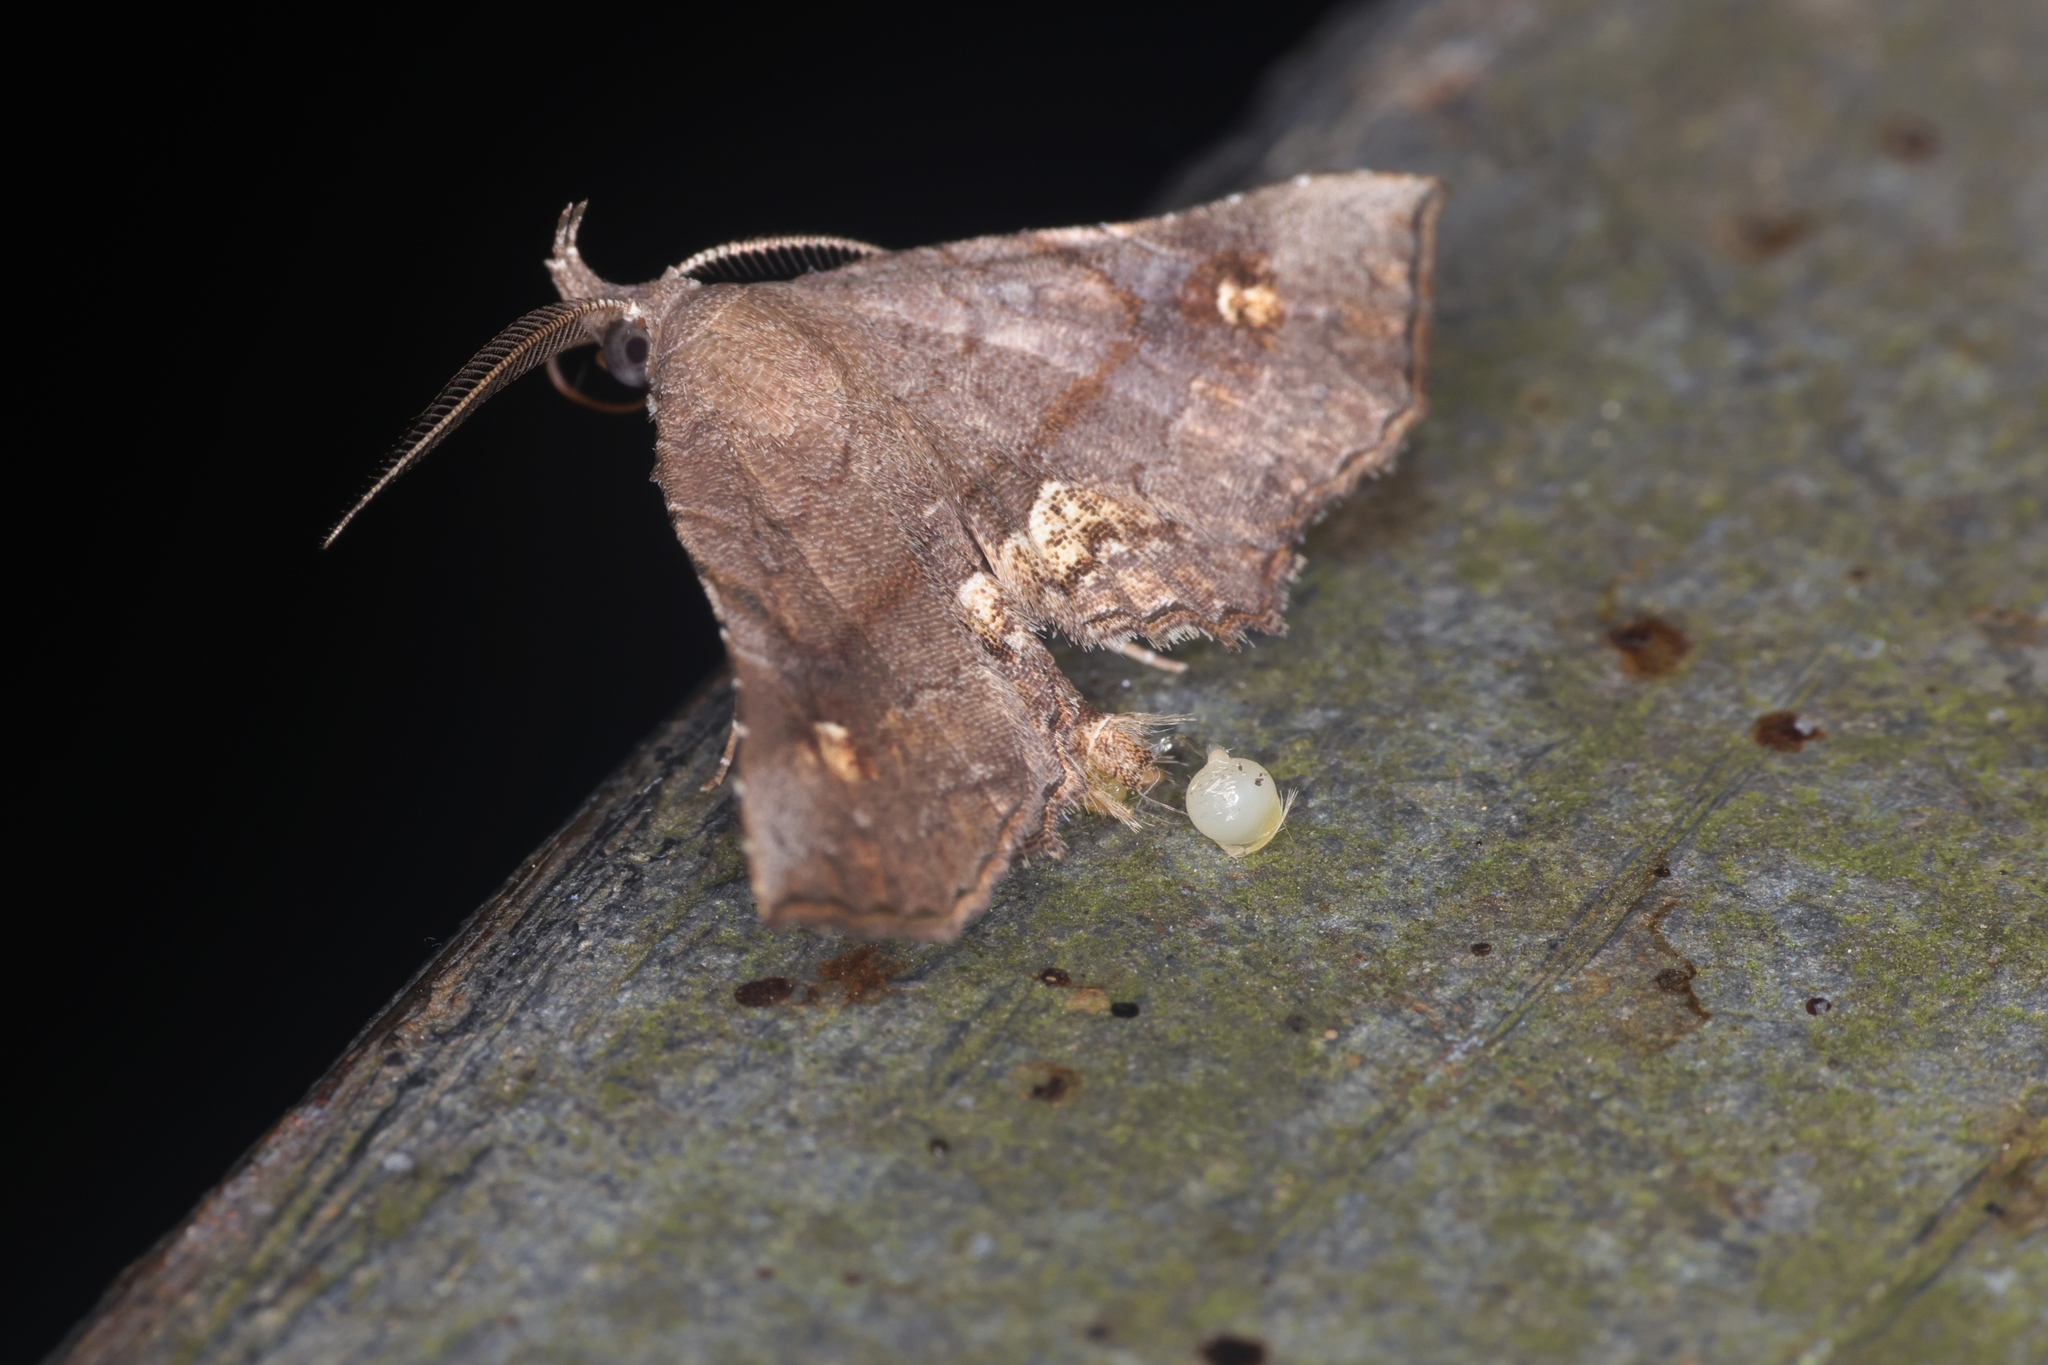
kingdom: Animalia
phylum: Arthropoda
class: Insecta
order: Lepidoptera
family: Erebidae
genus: Throana
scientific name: Throana pectinifer
